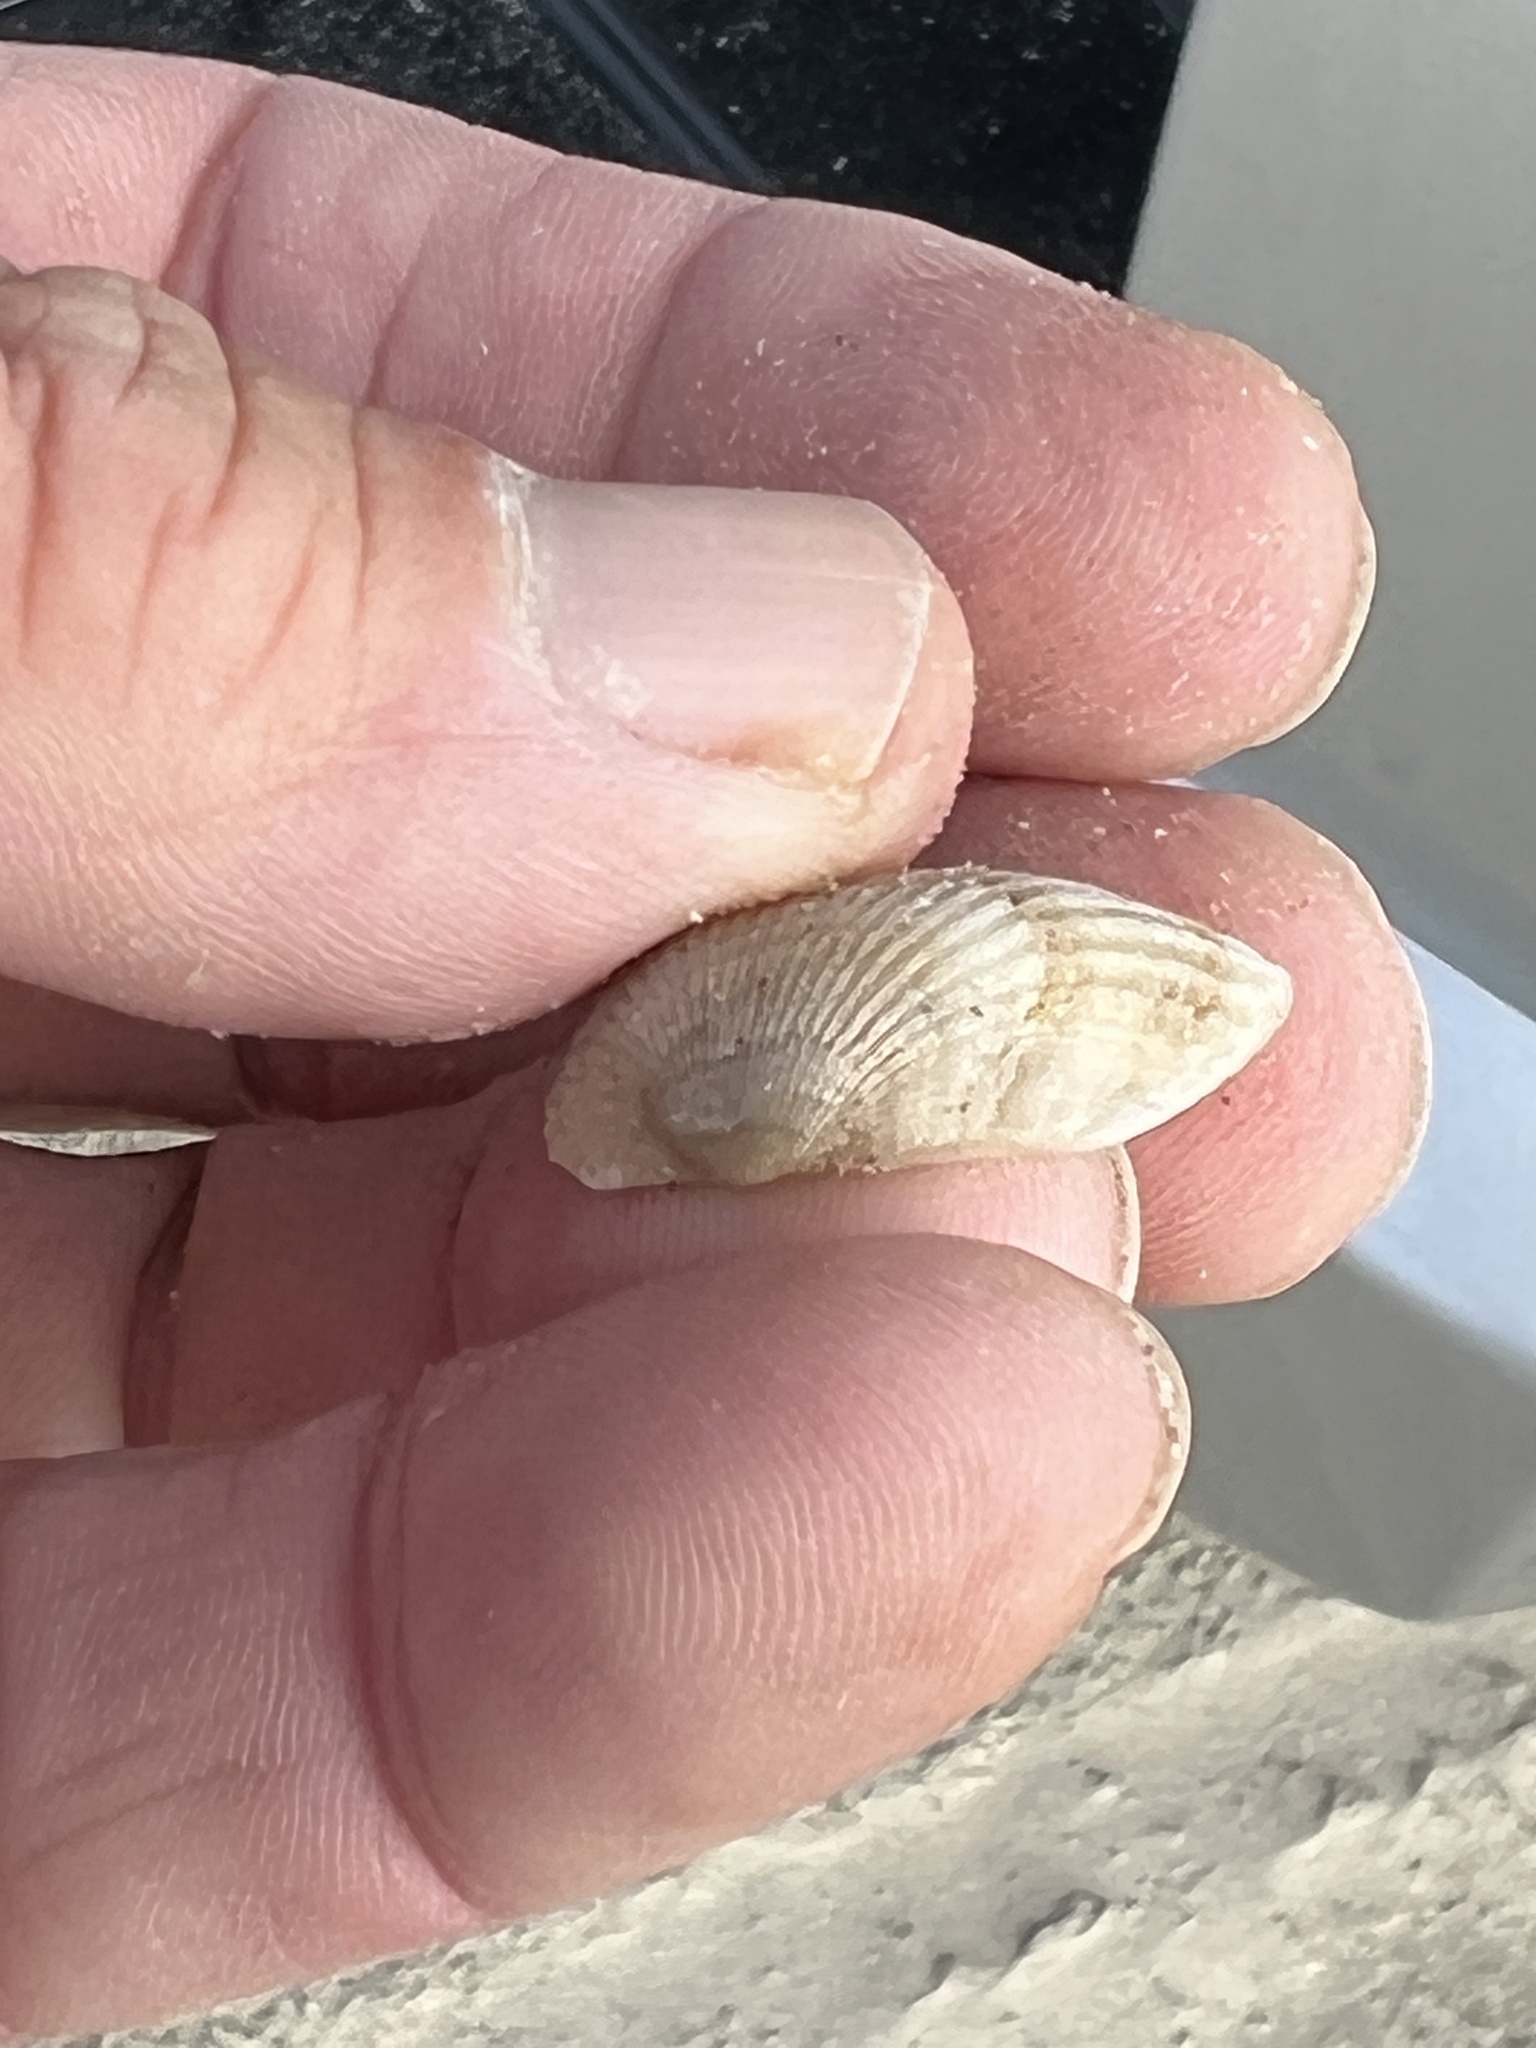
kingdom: Animalia
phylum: Mollusca
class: Bivalvia
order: Arcida
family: Arcidae
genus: Anadara
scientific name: Anadara transversa
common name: Transverse ark
